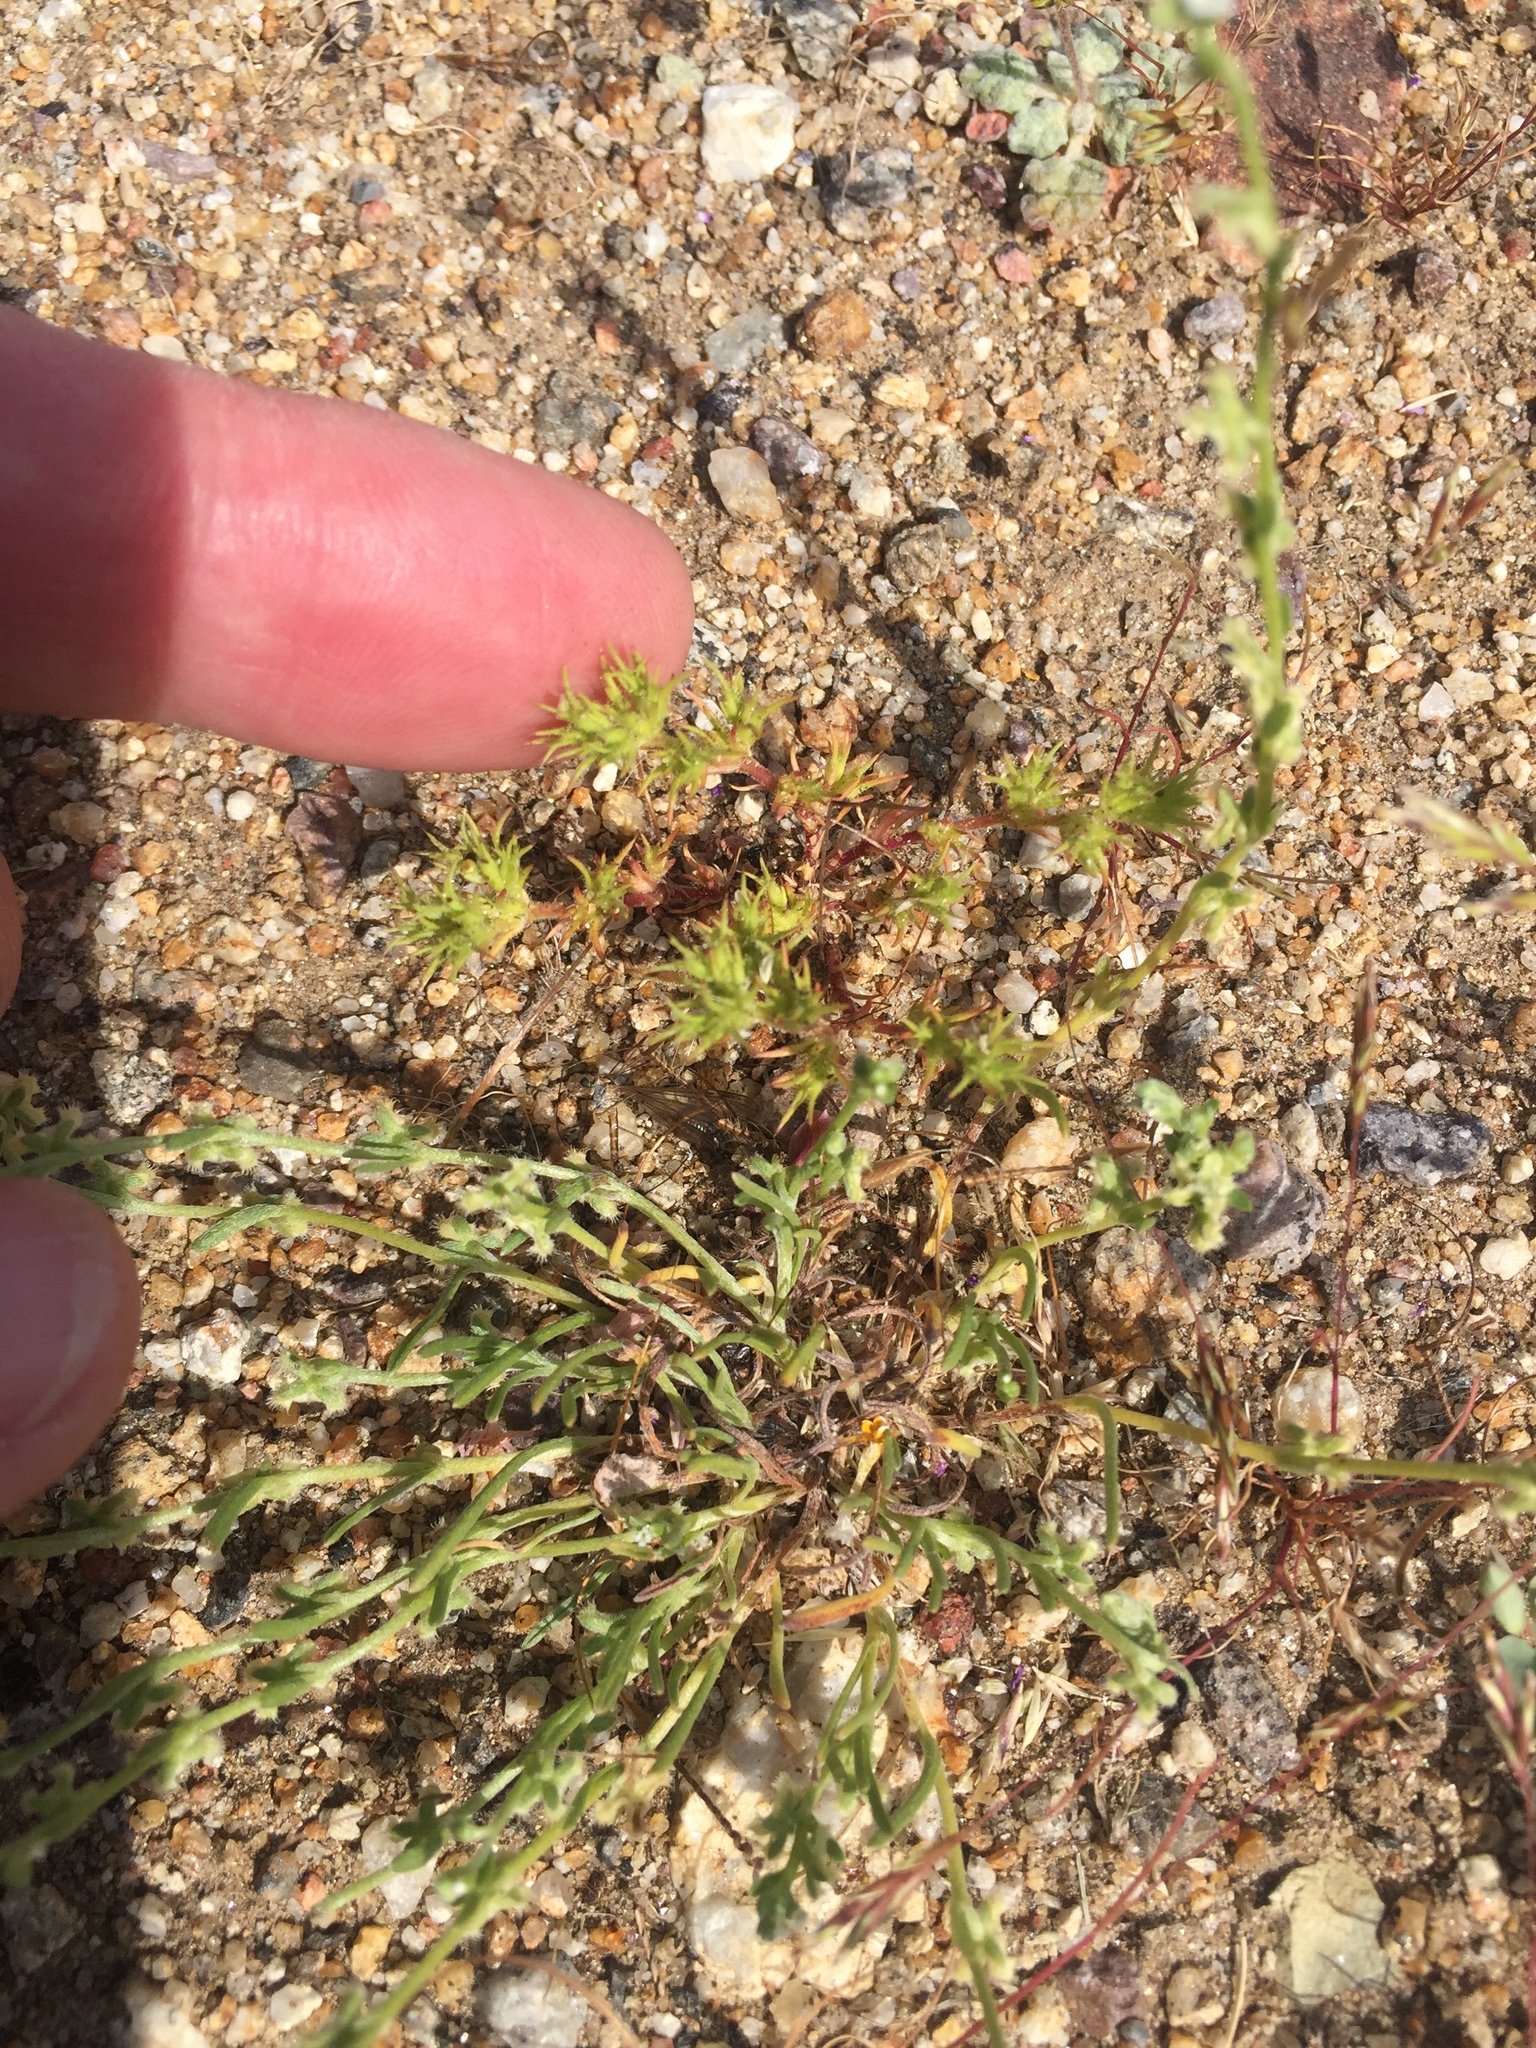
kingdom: Plantae
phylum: Tracheophyta
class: Magnoliopsida
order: Caryophyllales
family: Caryophyllaceae
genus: Loeflingia
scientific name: Loeflingia squarrosa
